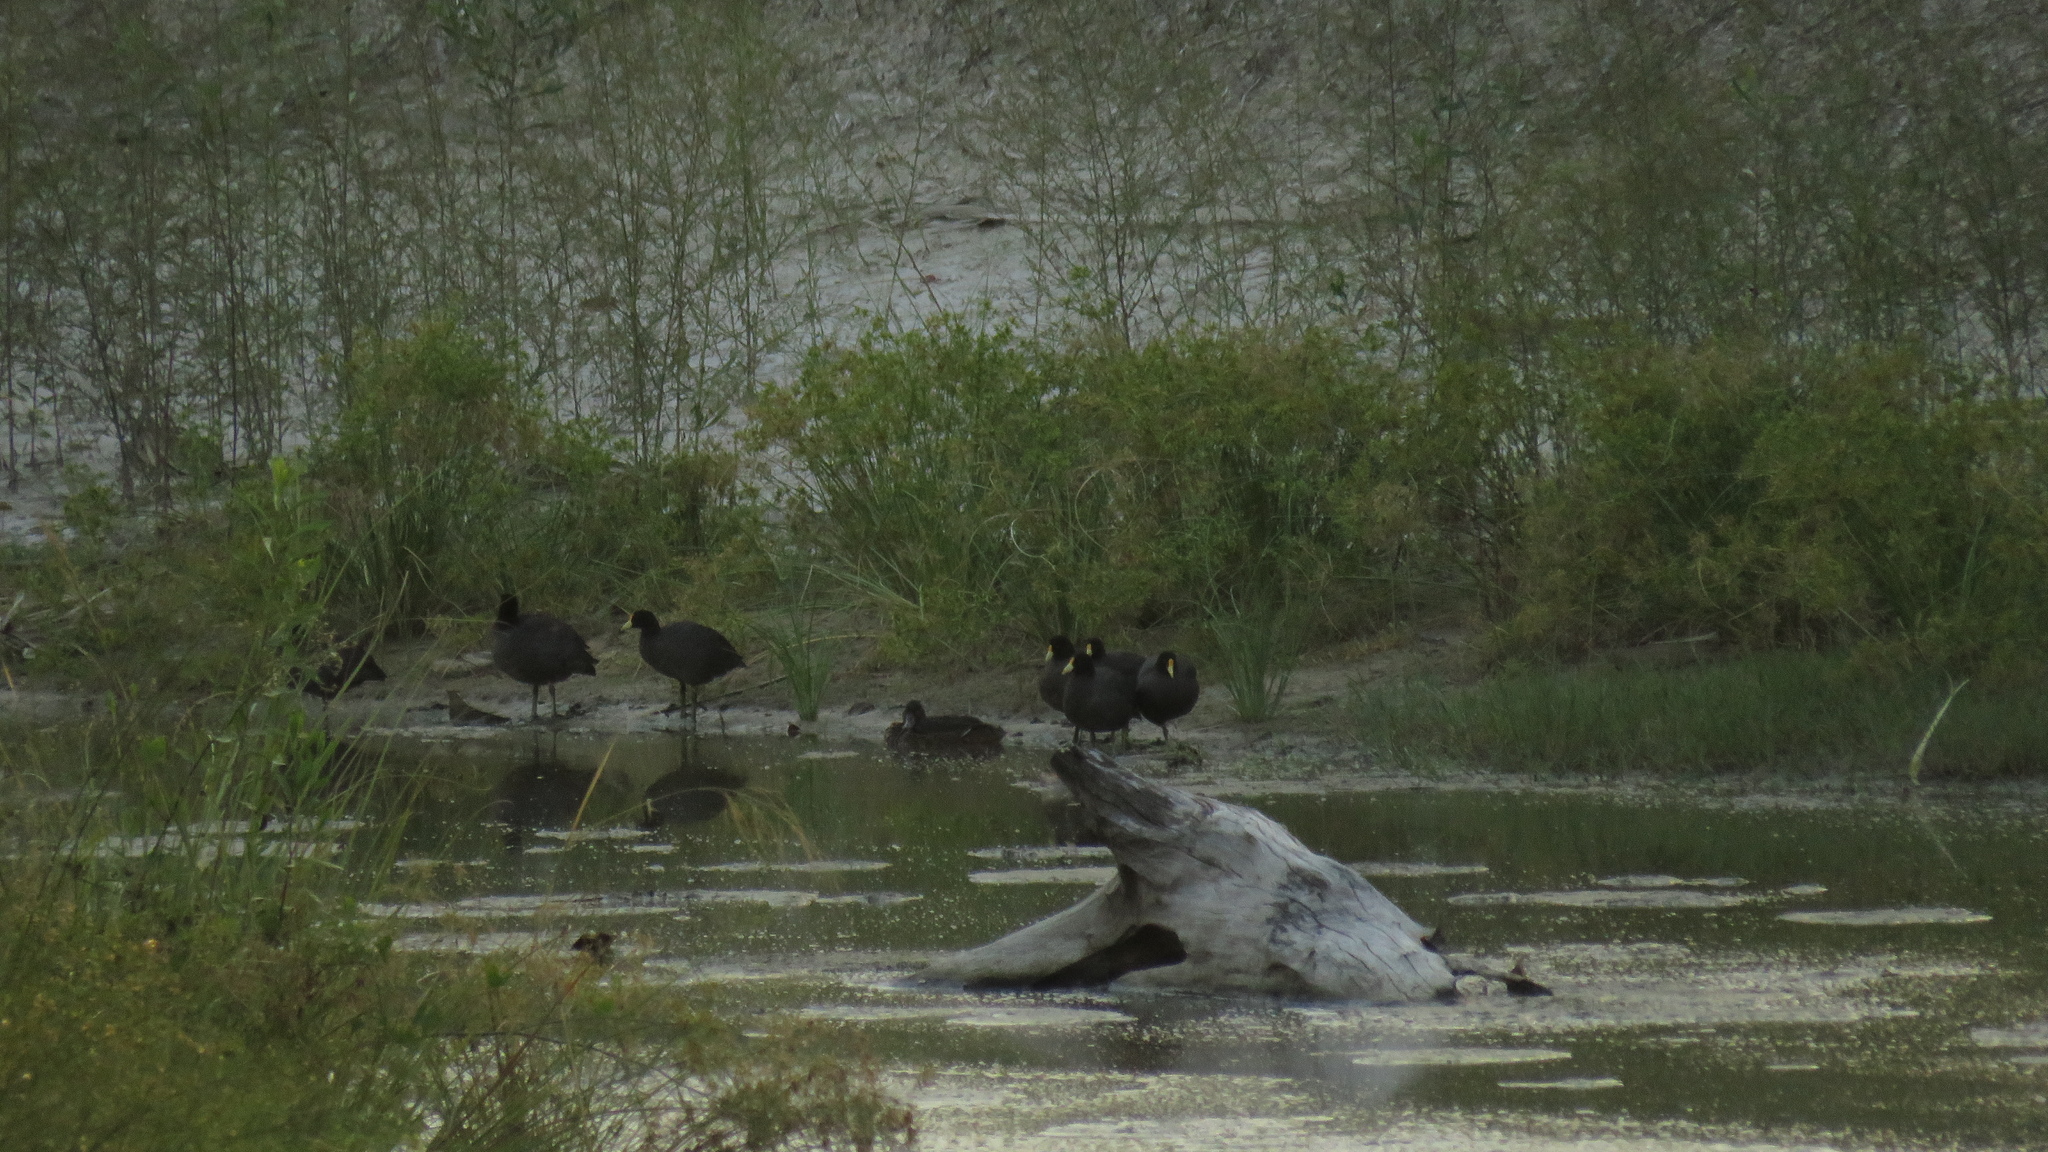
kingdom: Animalia
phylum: Chordata
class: Aves
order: Gruiformes
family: Rallidae
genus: Fulica
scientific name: Fulica leucoptera
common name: White-winged coot
